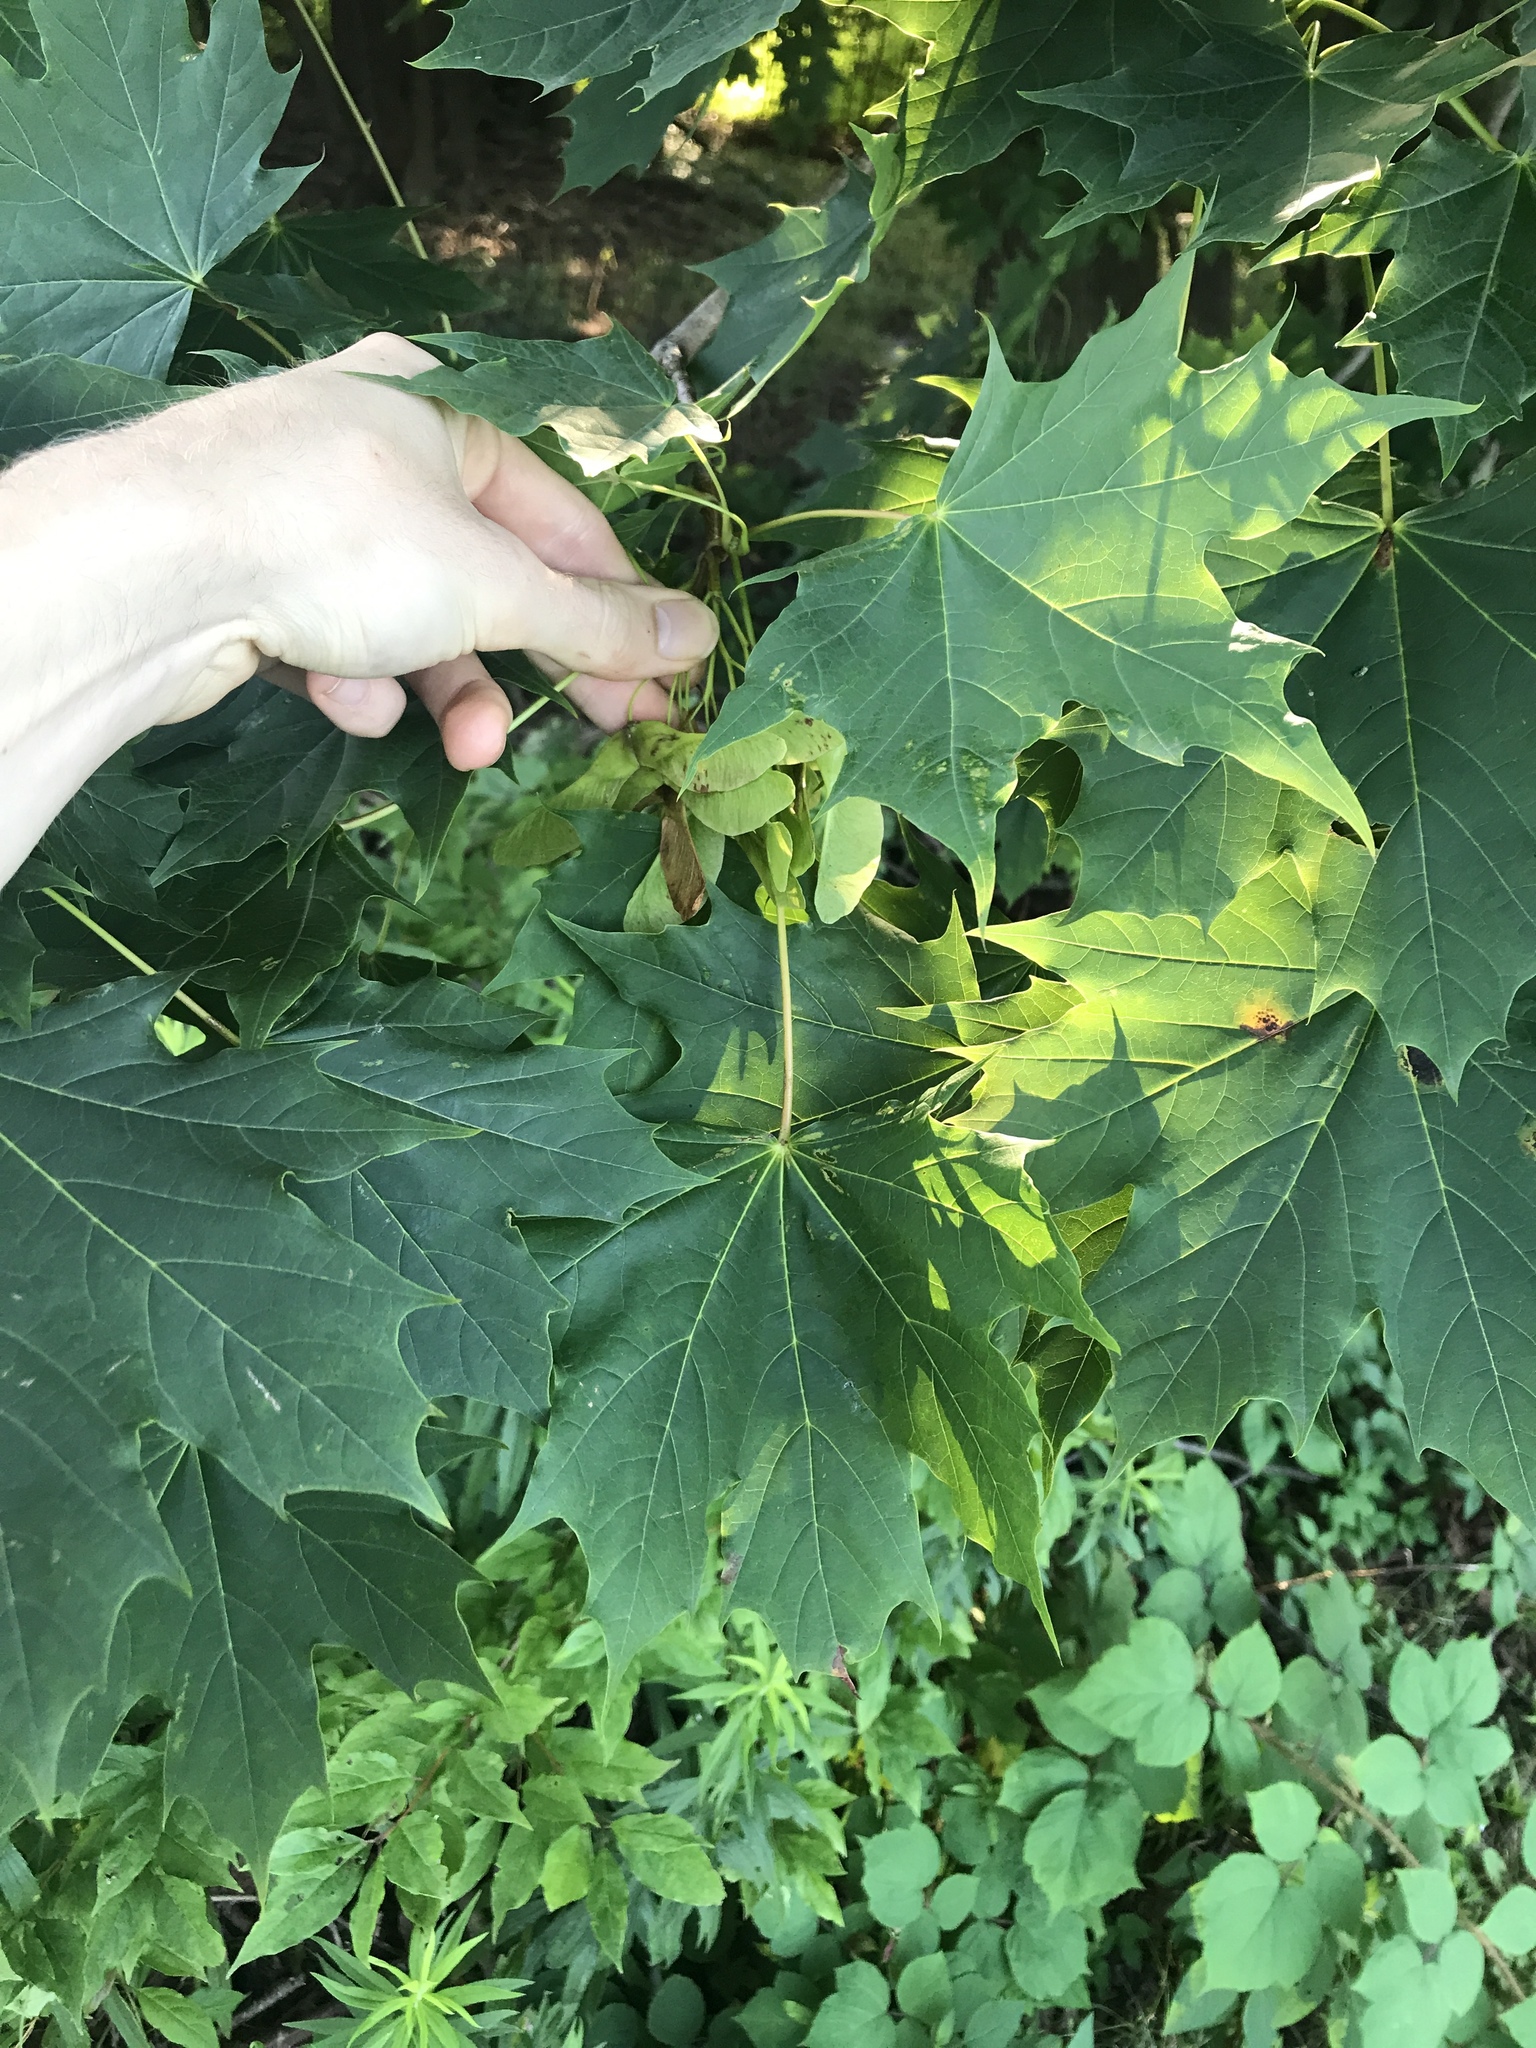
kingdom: Plantae
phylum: Tracheophyta
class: Magnoliopsida
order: Sapindales
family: Sapindaceae
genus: Acer
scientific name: Acer platanoides
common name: Norway maple
